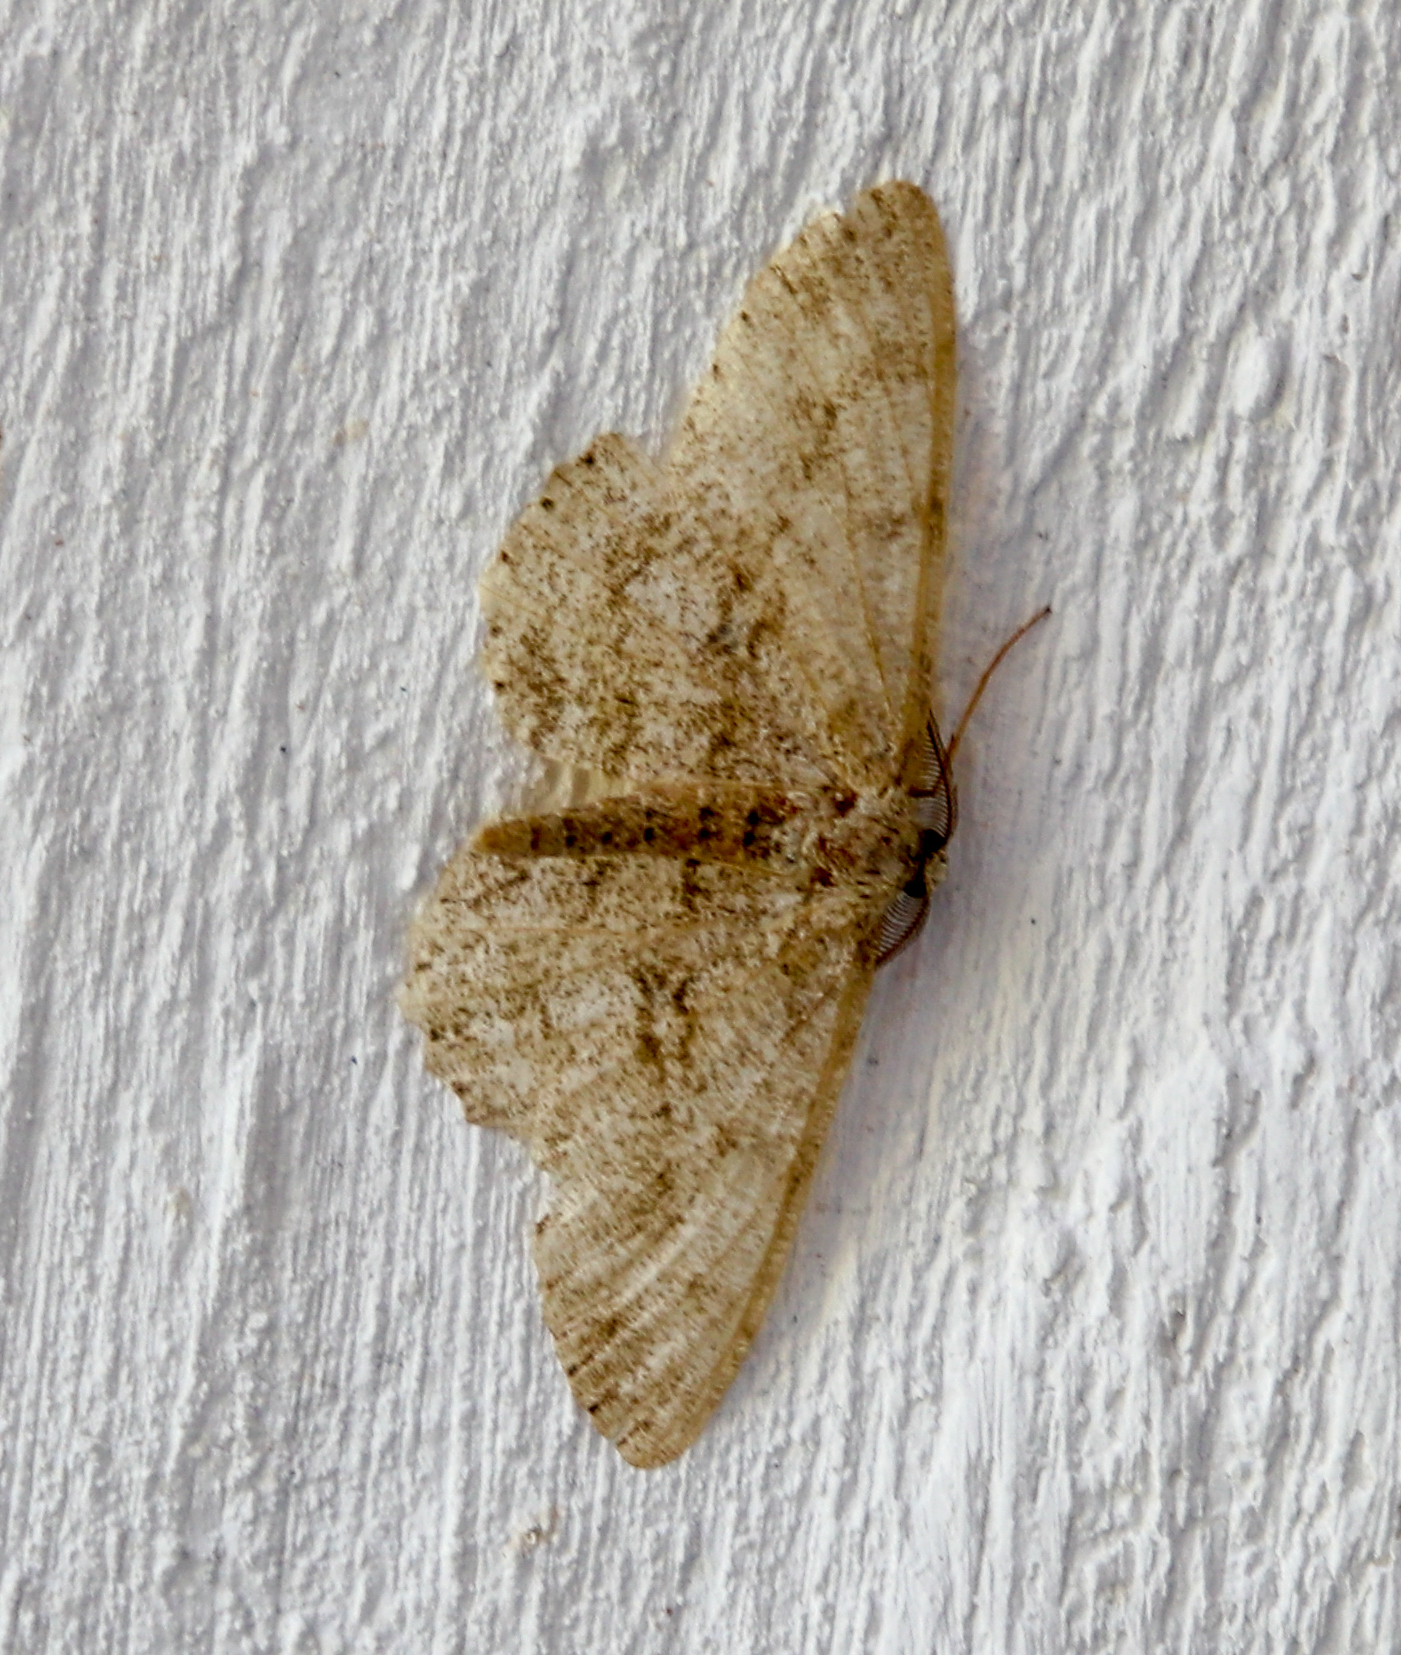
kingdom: Animalia
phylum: Arthropoda
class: Insecta
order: Lepidoptera
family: Geometridae
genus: Hypomecis
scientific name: Hypomecis punctinalis
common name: Pale oak beauty
